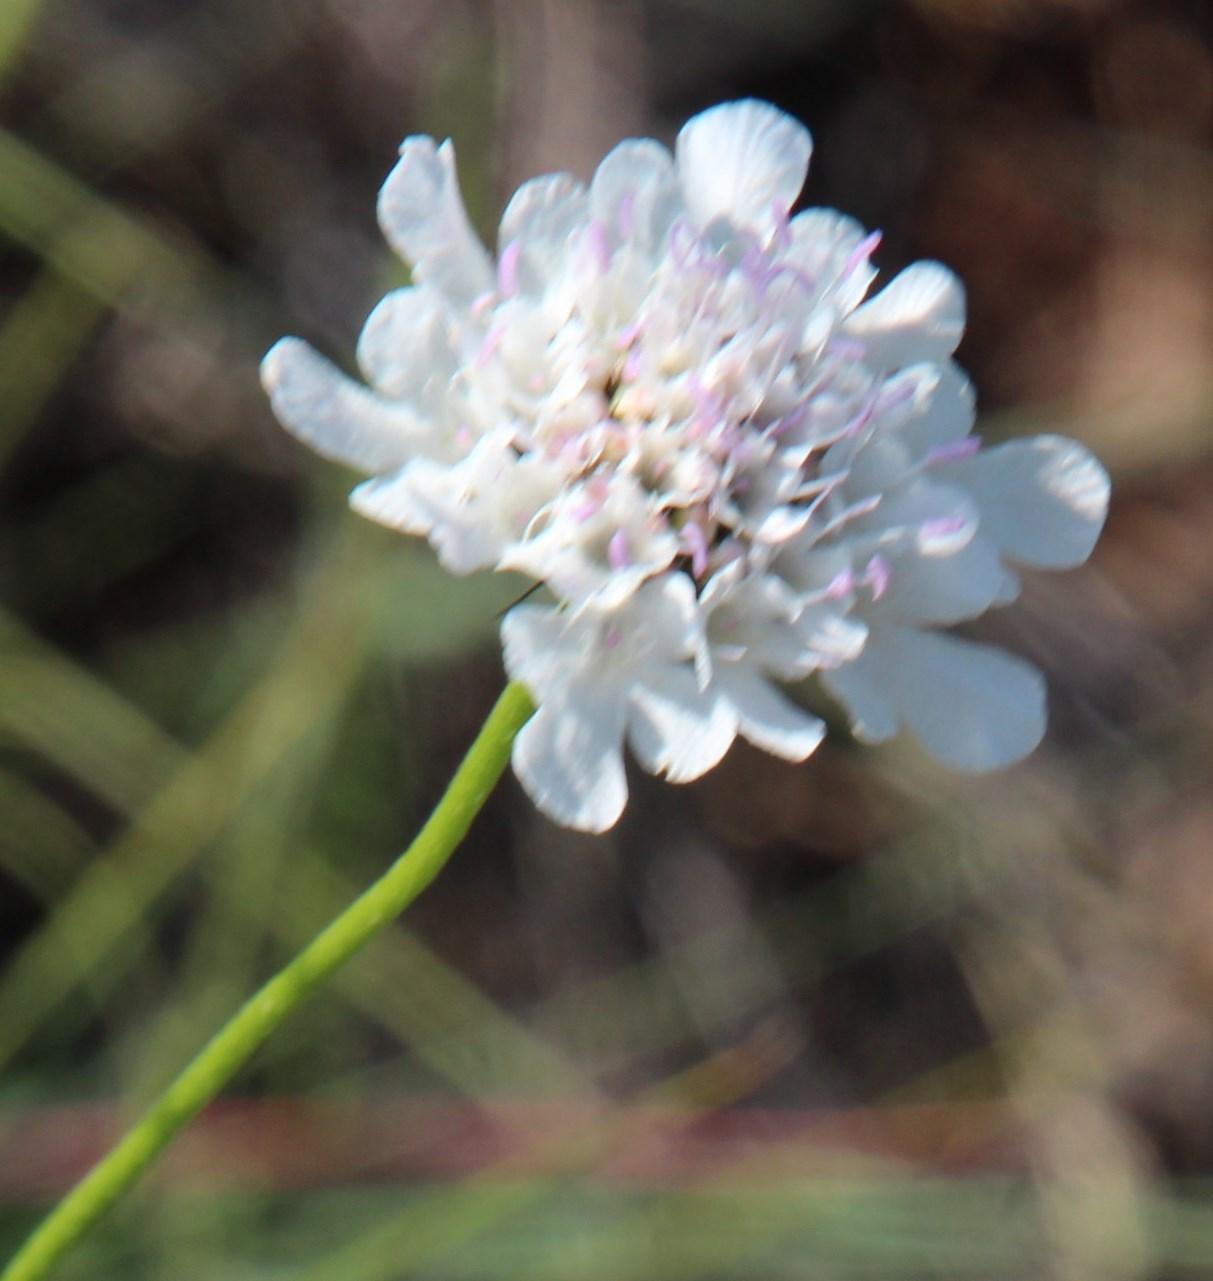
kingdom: Plantae
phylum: Tracheophyta
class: Magnoliopsida
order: Dipsacales
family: Caprifoliaceae
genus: Scabiosa
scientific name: Scabiosa columbaria
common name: Small scabious
